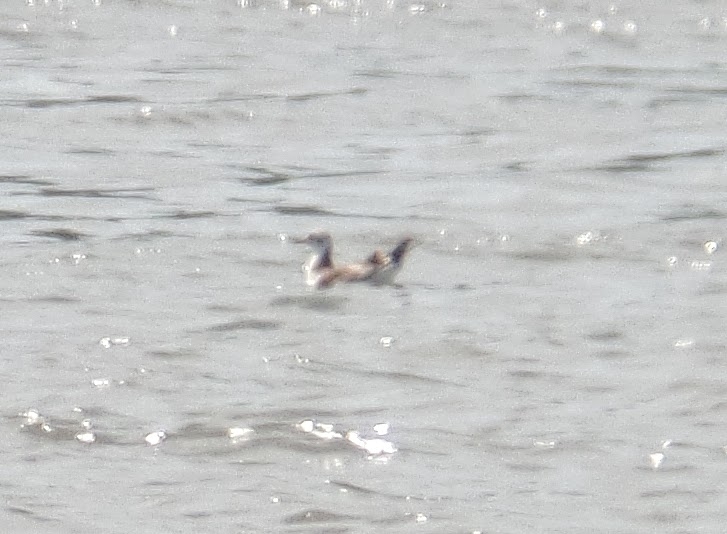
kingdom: Animalia
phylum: Chordata
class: Aves
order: Charadriiformes
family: Laridae
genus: Chroicocephalus
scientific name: Chroicocephalus ridibundus
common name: Black-headed gull
